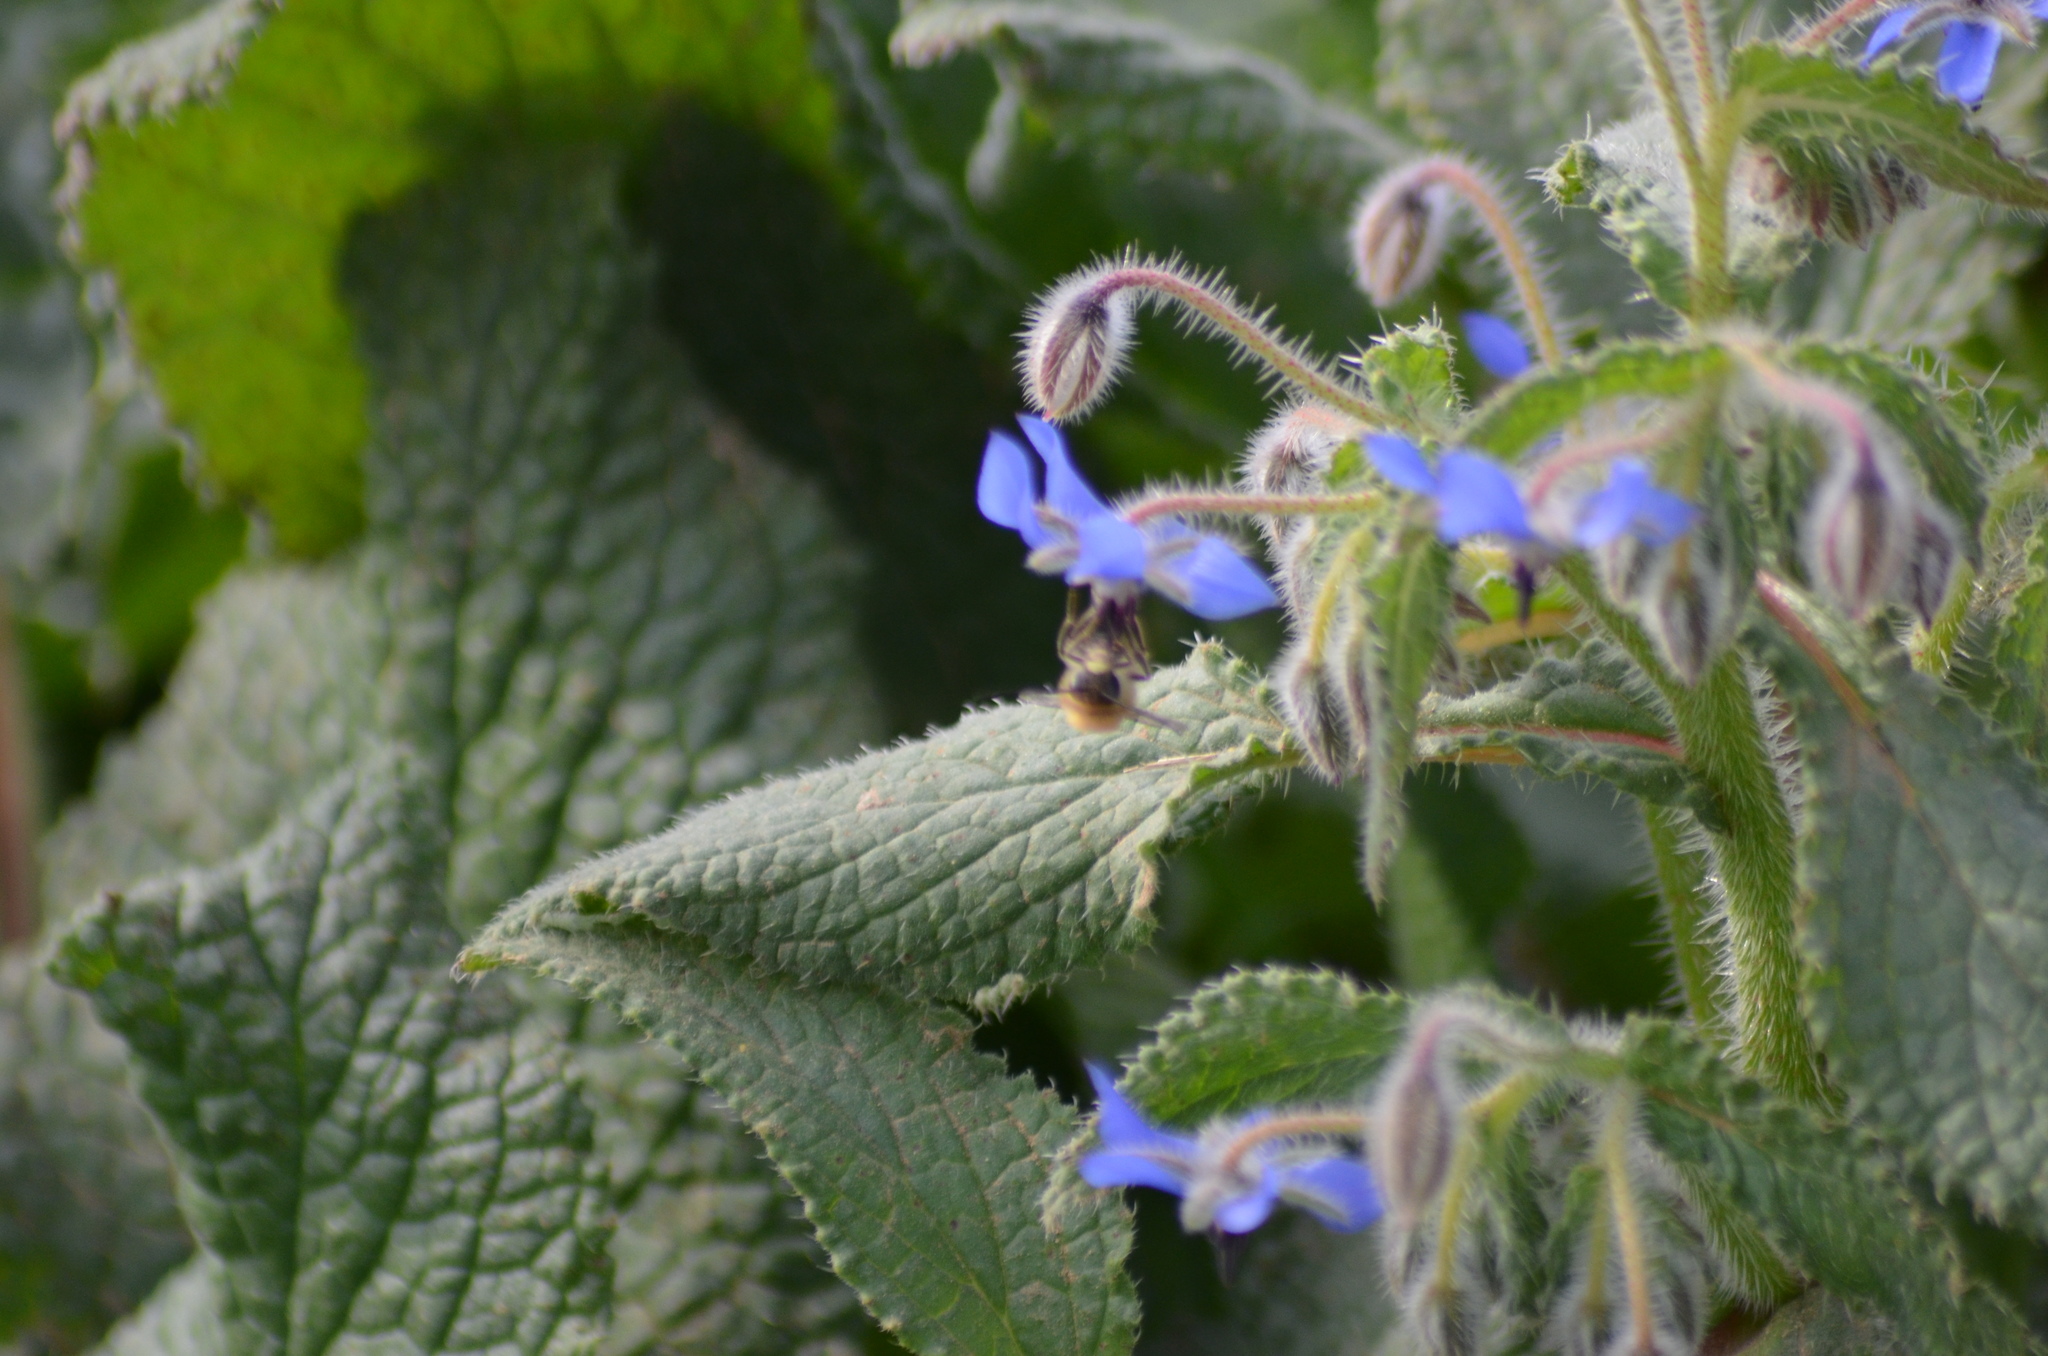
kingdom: Plantae
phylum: Tracheophyta
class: Magnoliopsida
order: Boraginales
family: Boraginaceae
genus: Borago
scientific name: Borago officinalis
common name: Borage
